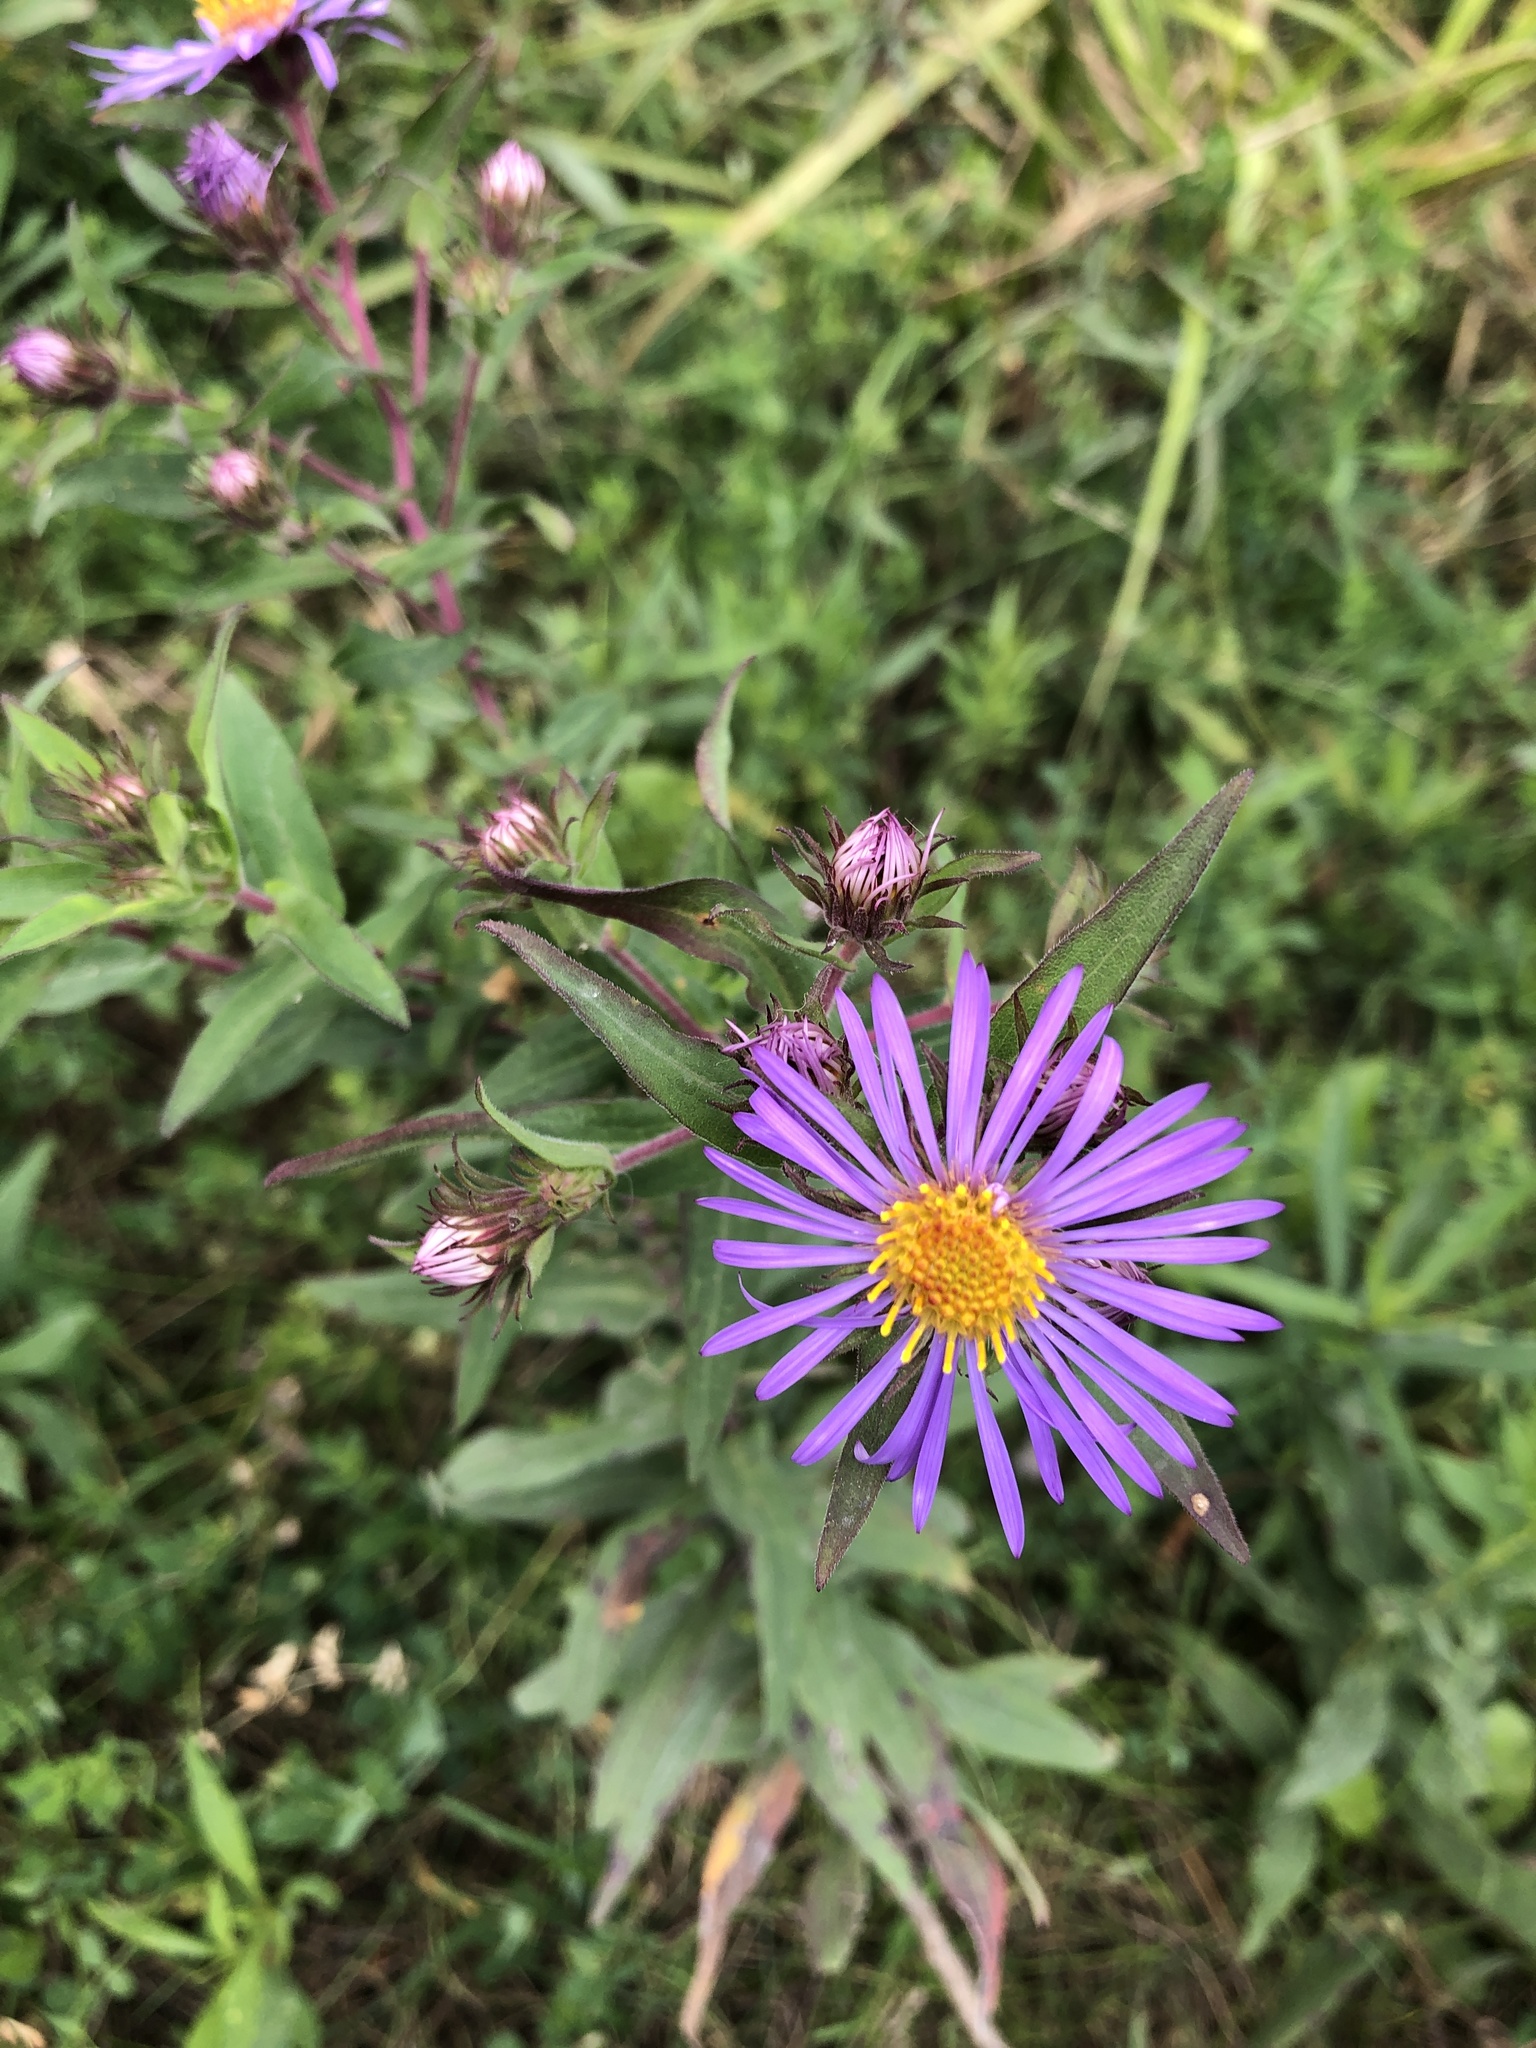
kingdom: Plantae
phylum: Tracheophyta
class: Magnoliopsida
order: Asterales
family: Asteraceae
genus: Symphyotrichum
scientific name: Symphyotrichum novae-angliae
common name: Michaelmas daisy
